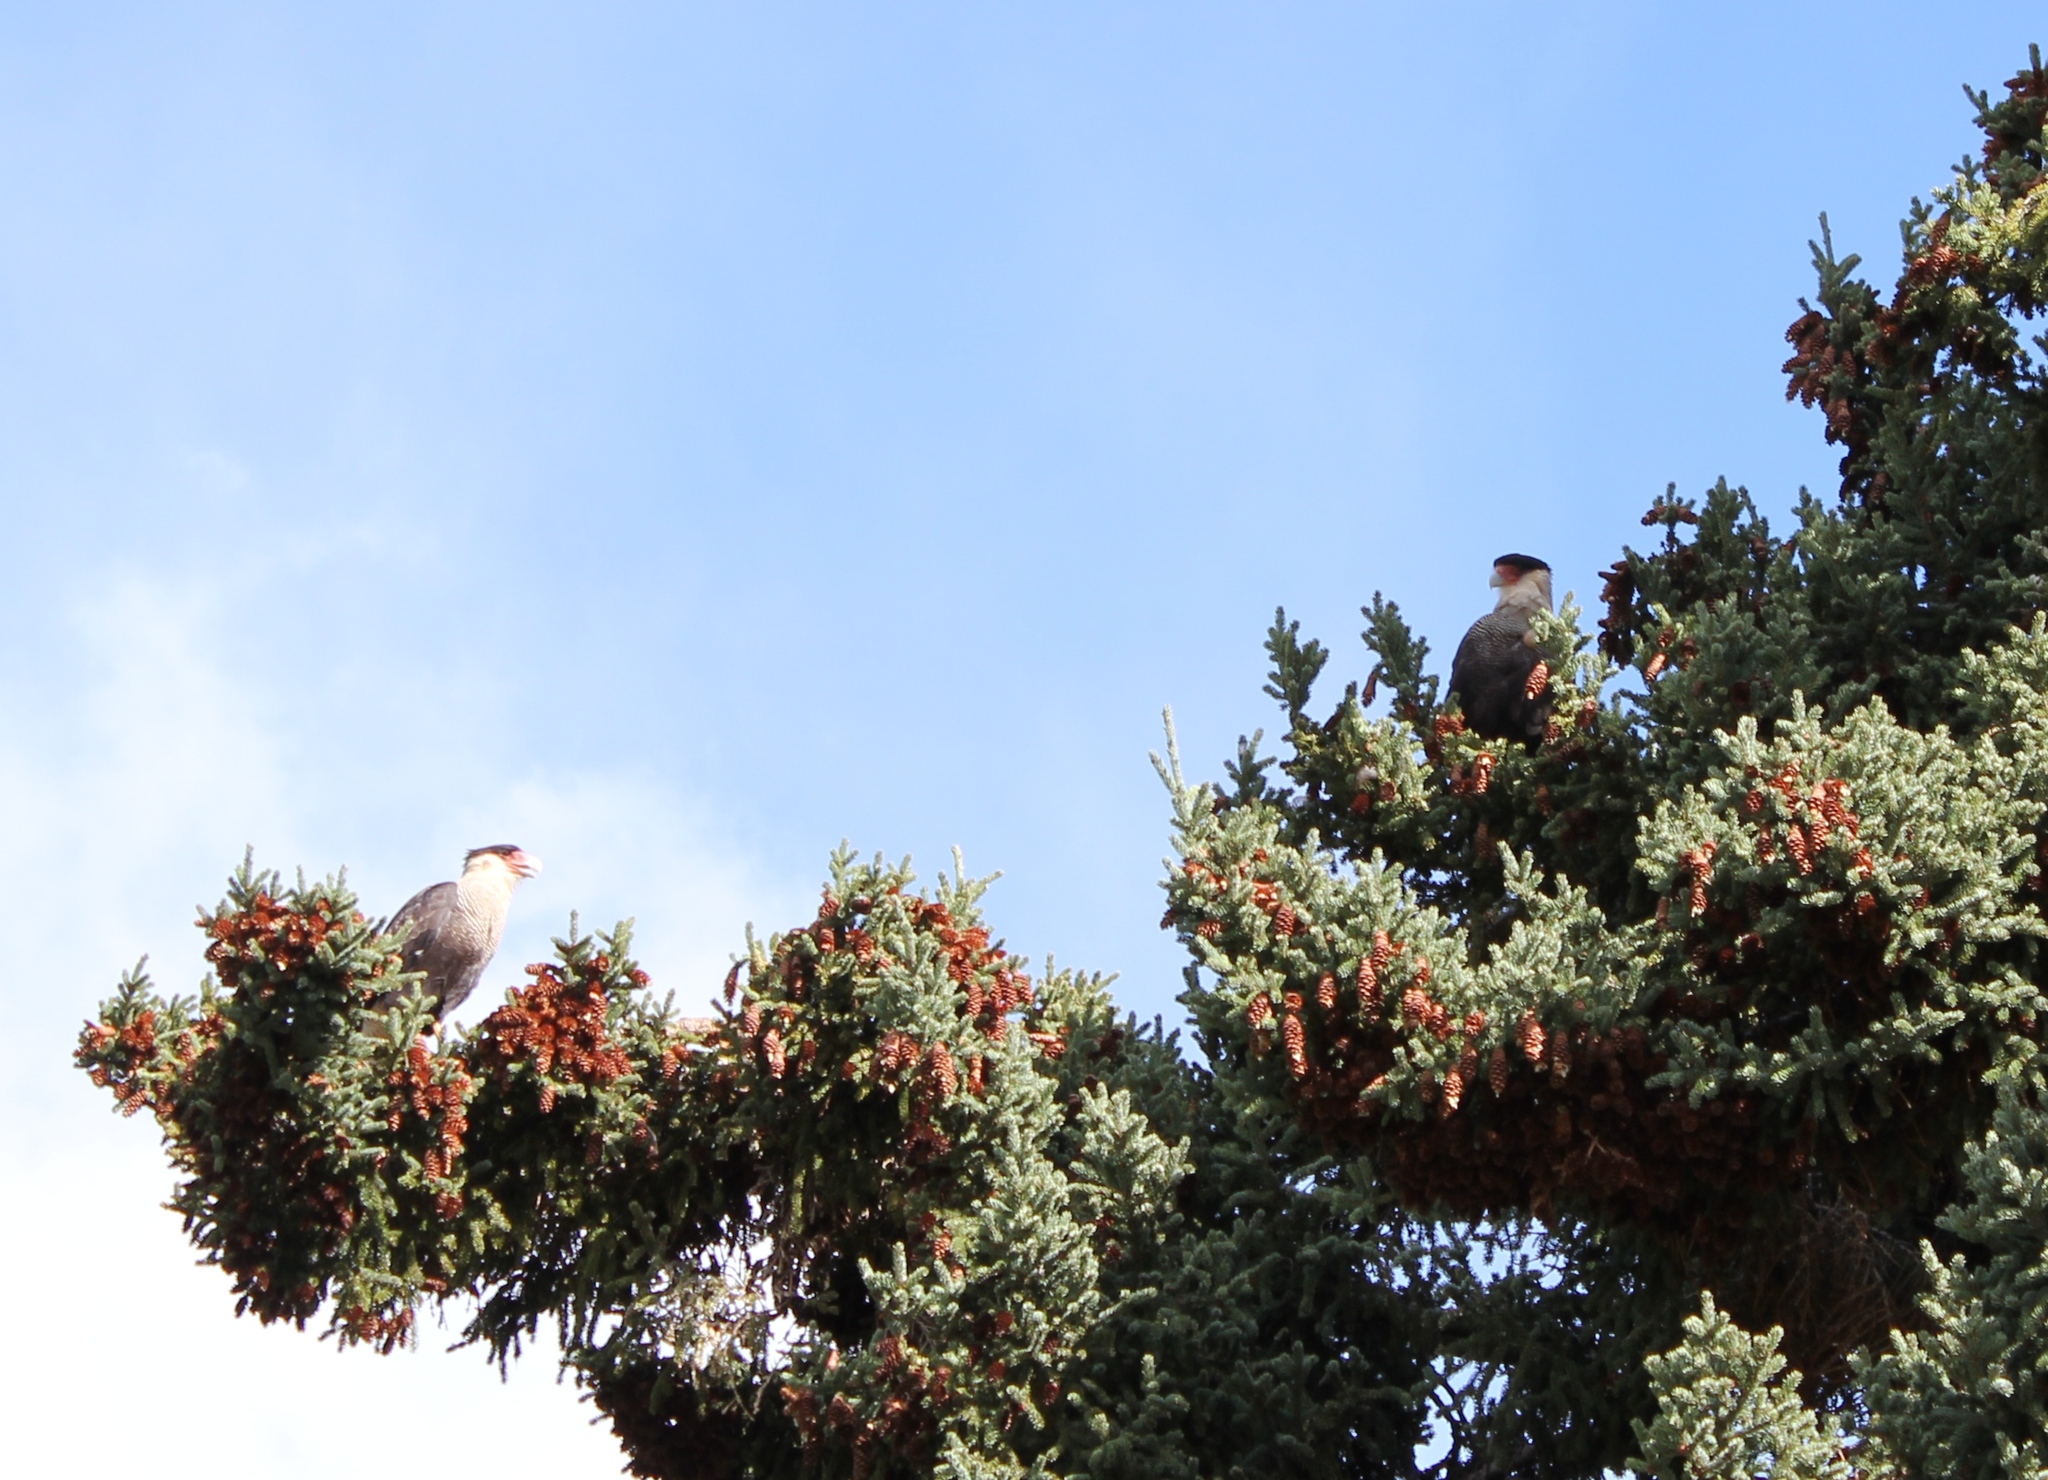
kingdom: Animalia
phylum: Chordata
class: Aves
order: Falconiformes
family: Falconidae
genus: Caracara
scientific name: Caracara plancus
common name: Southern caracara
